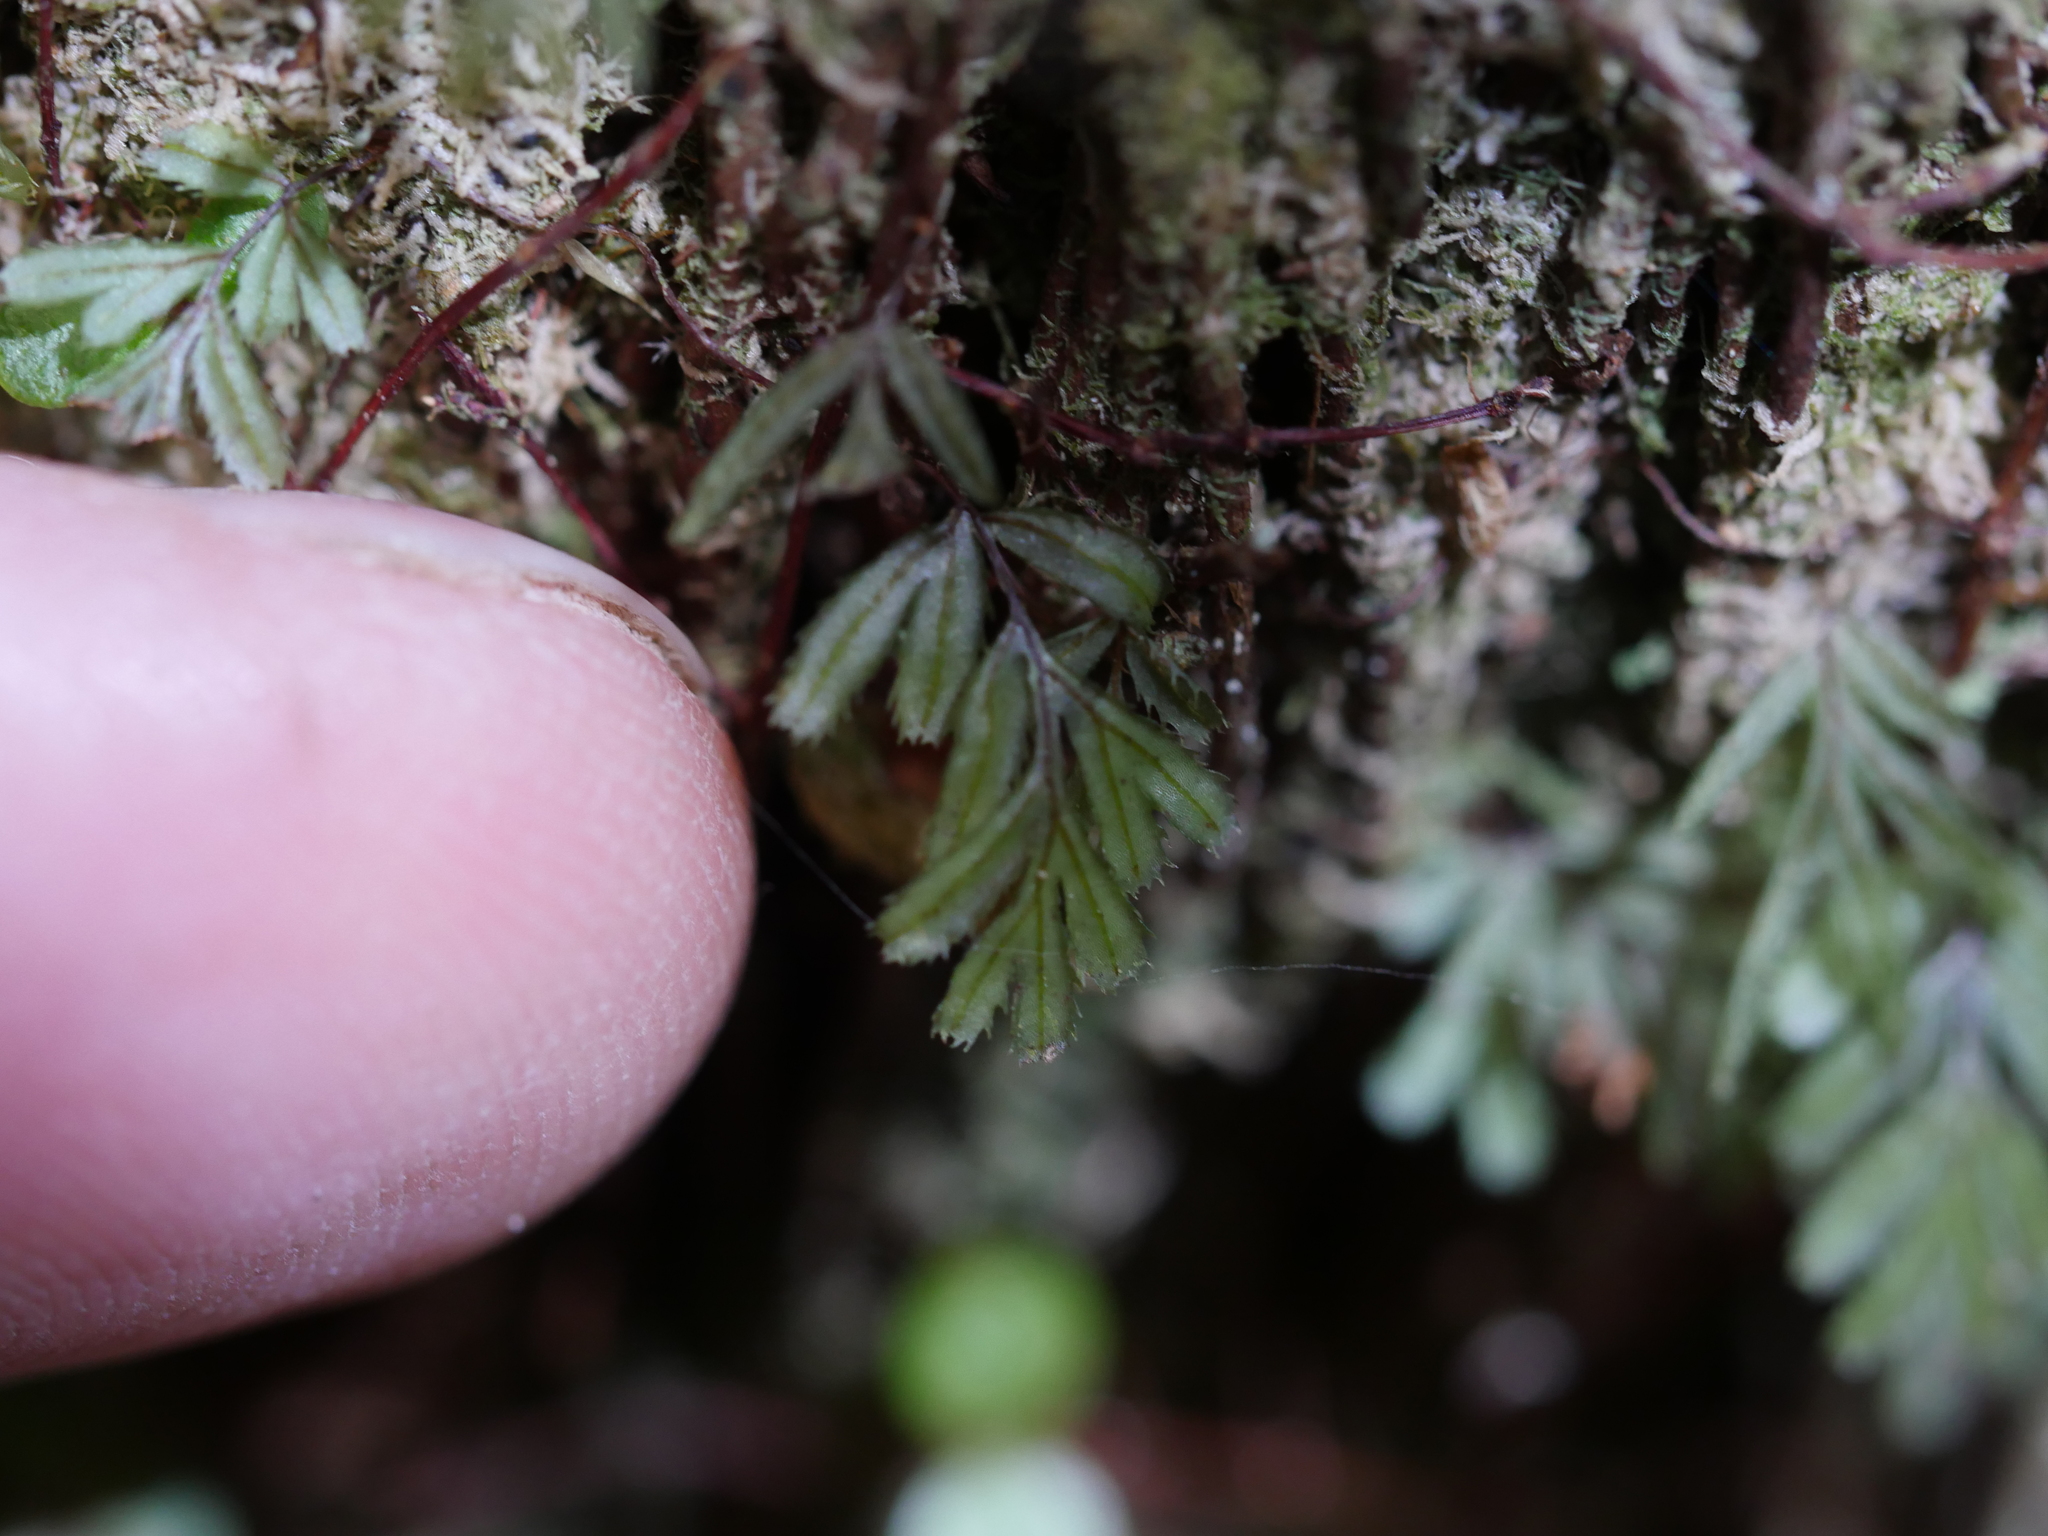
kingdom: Plantae
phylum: Tracheophyta
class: Polypodiopsida
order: Hymenophyllales
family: Hymenophyllaceae
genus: Hymenophyllum
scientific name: Hymenophyllum revolutum
